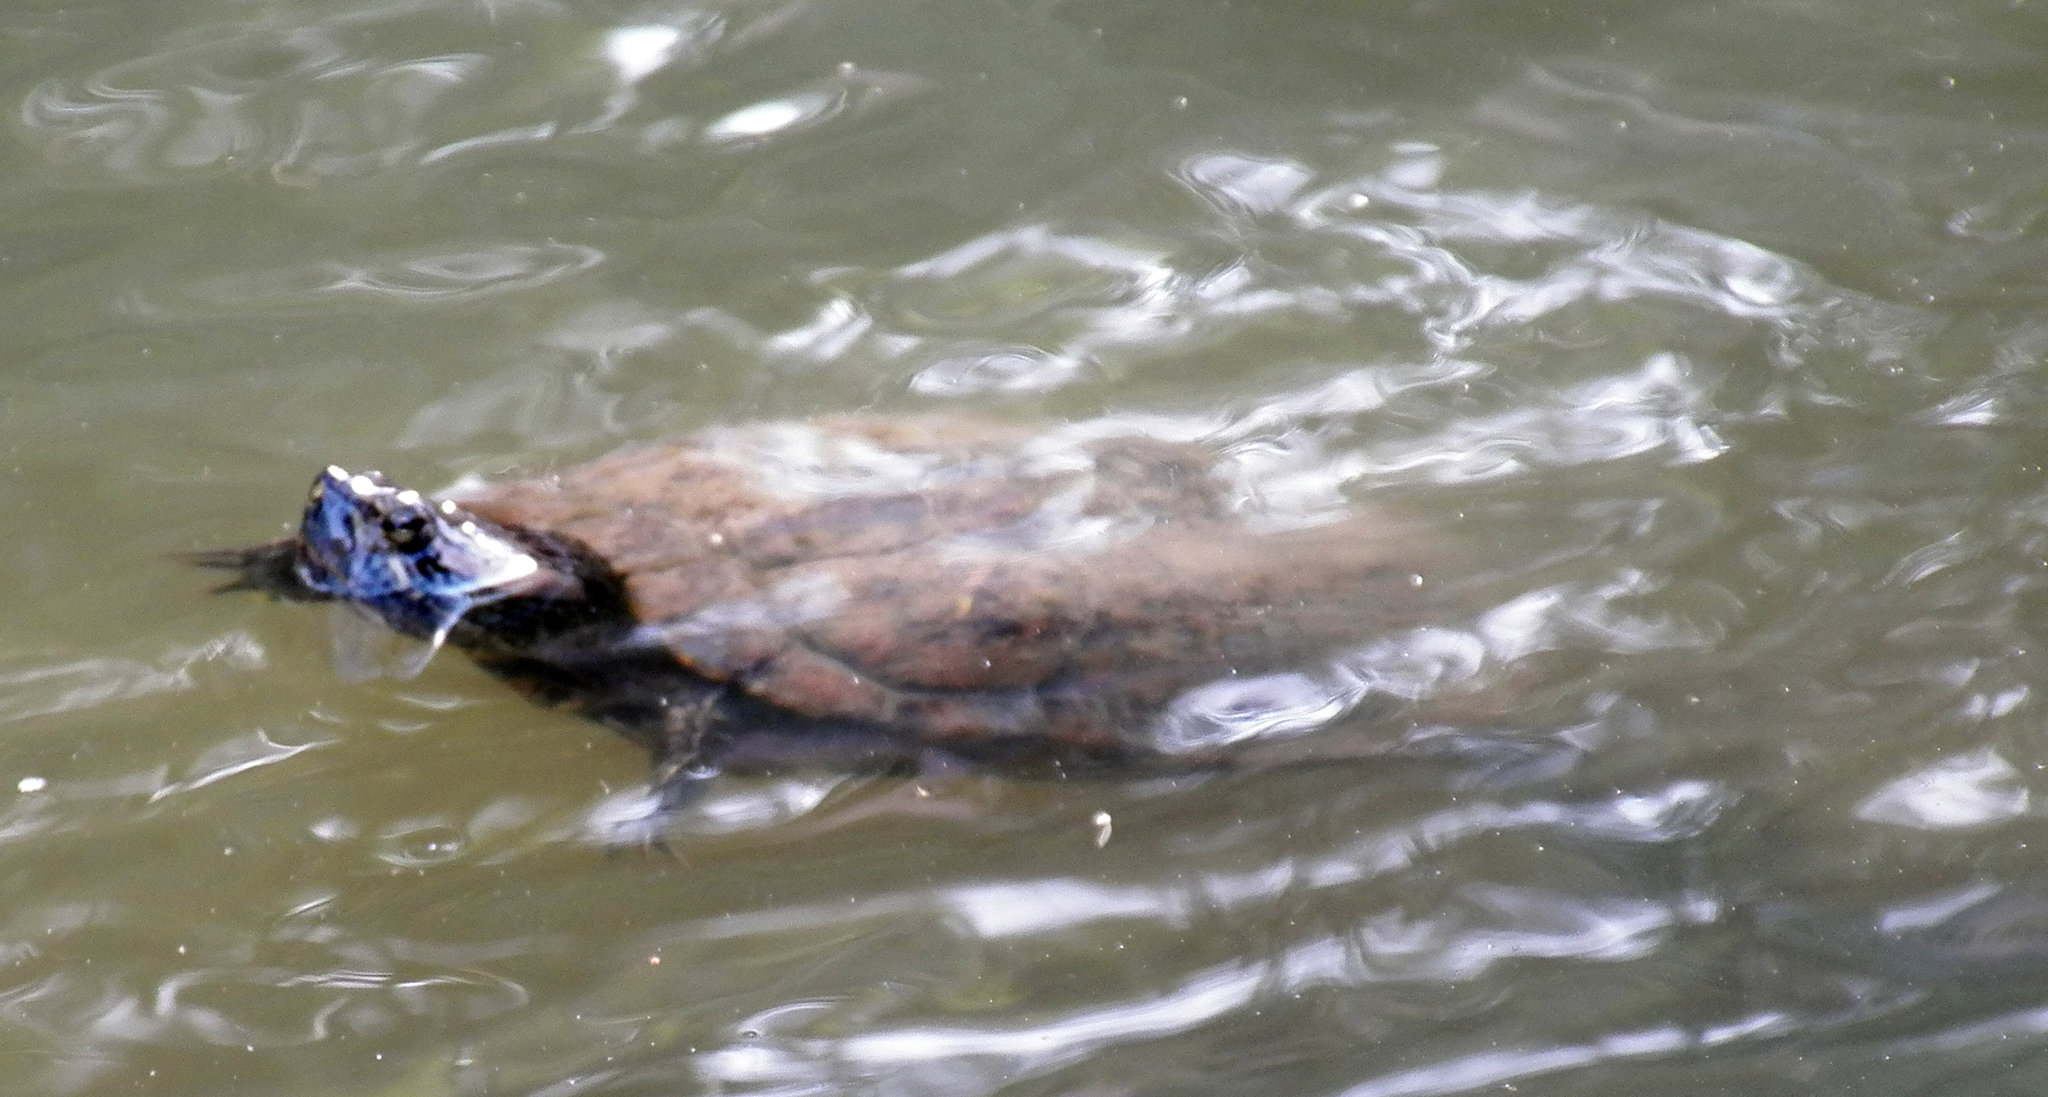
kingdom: Animalia
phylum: Chordata
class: Testudines
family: Emydidae
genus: Trachemys
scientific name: Trachemys scripta
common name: Slider
